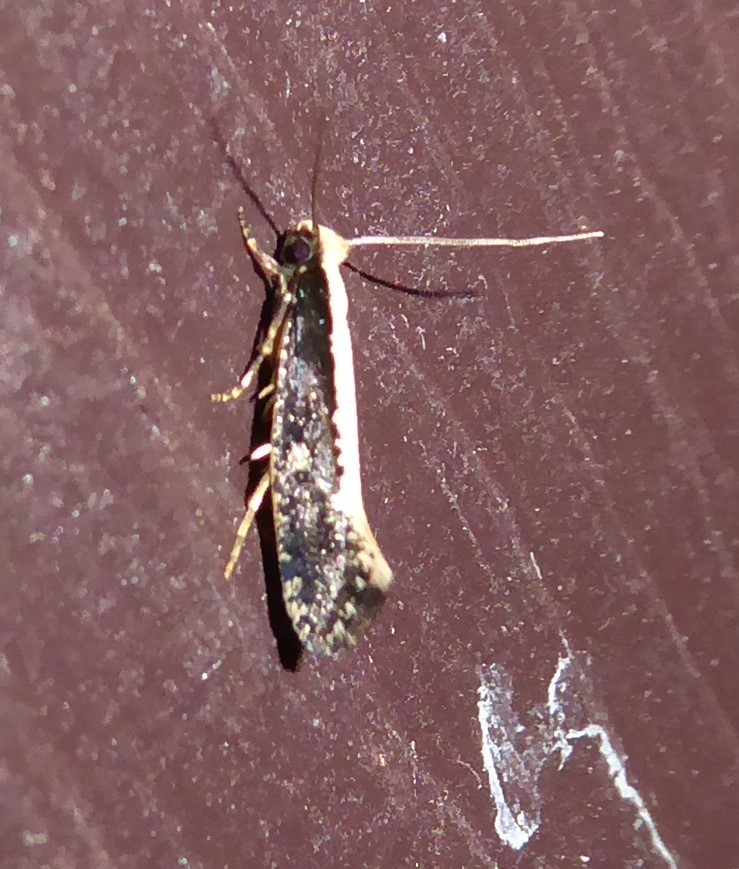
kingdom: Animalia
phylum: Arthropoda
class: Insecta
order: Lepidoptera
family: Tineidae
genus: Monopis
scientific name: Monopis ethelella
